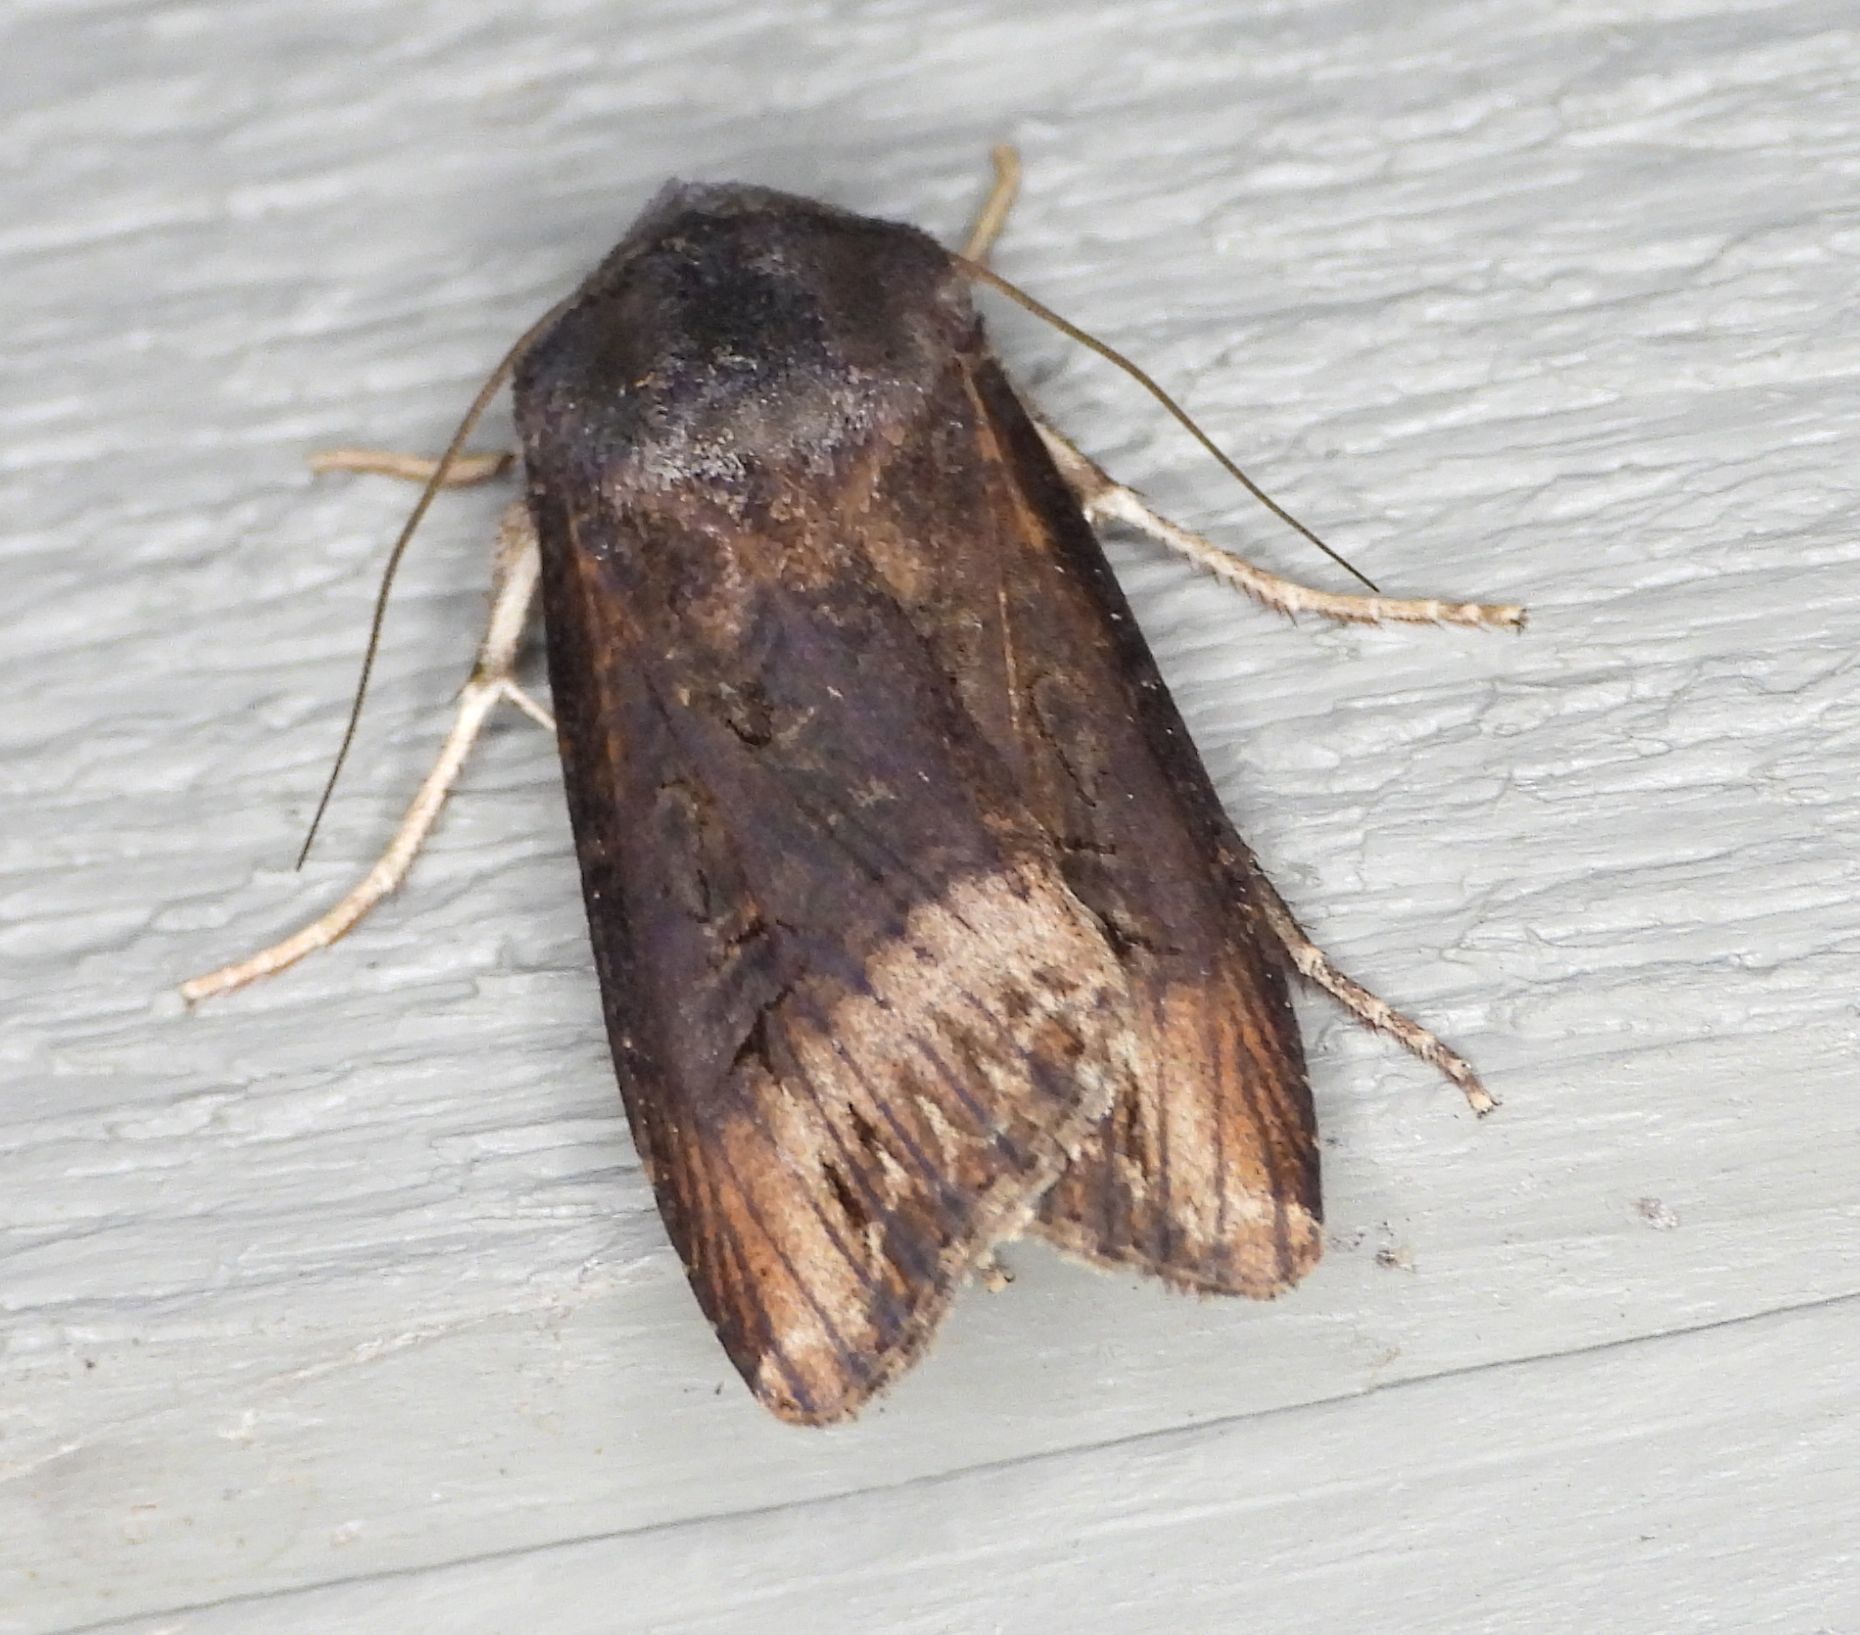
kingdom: Animalia
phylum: Arthropoda
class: Insecta
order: Lepidoptera
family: Noctuidae
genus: Agrotis
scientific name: Agrotis ipsilon
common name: Dark sword-grass
